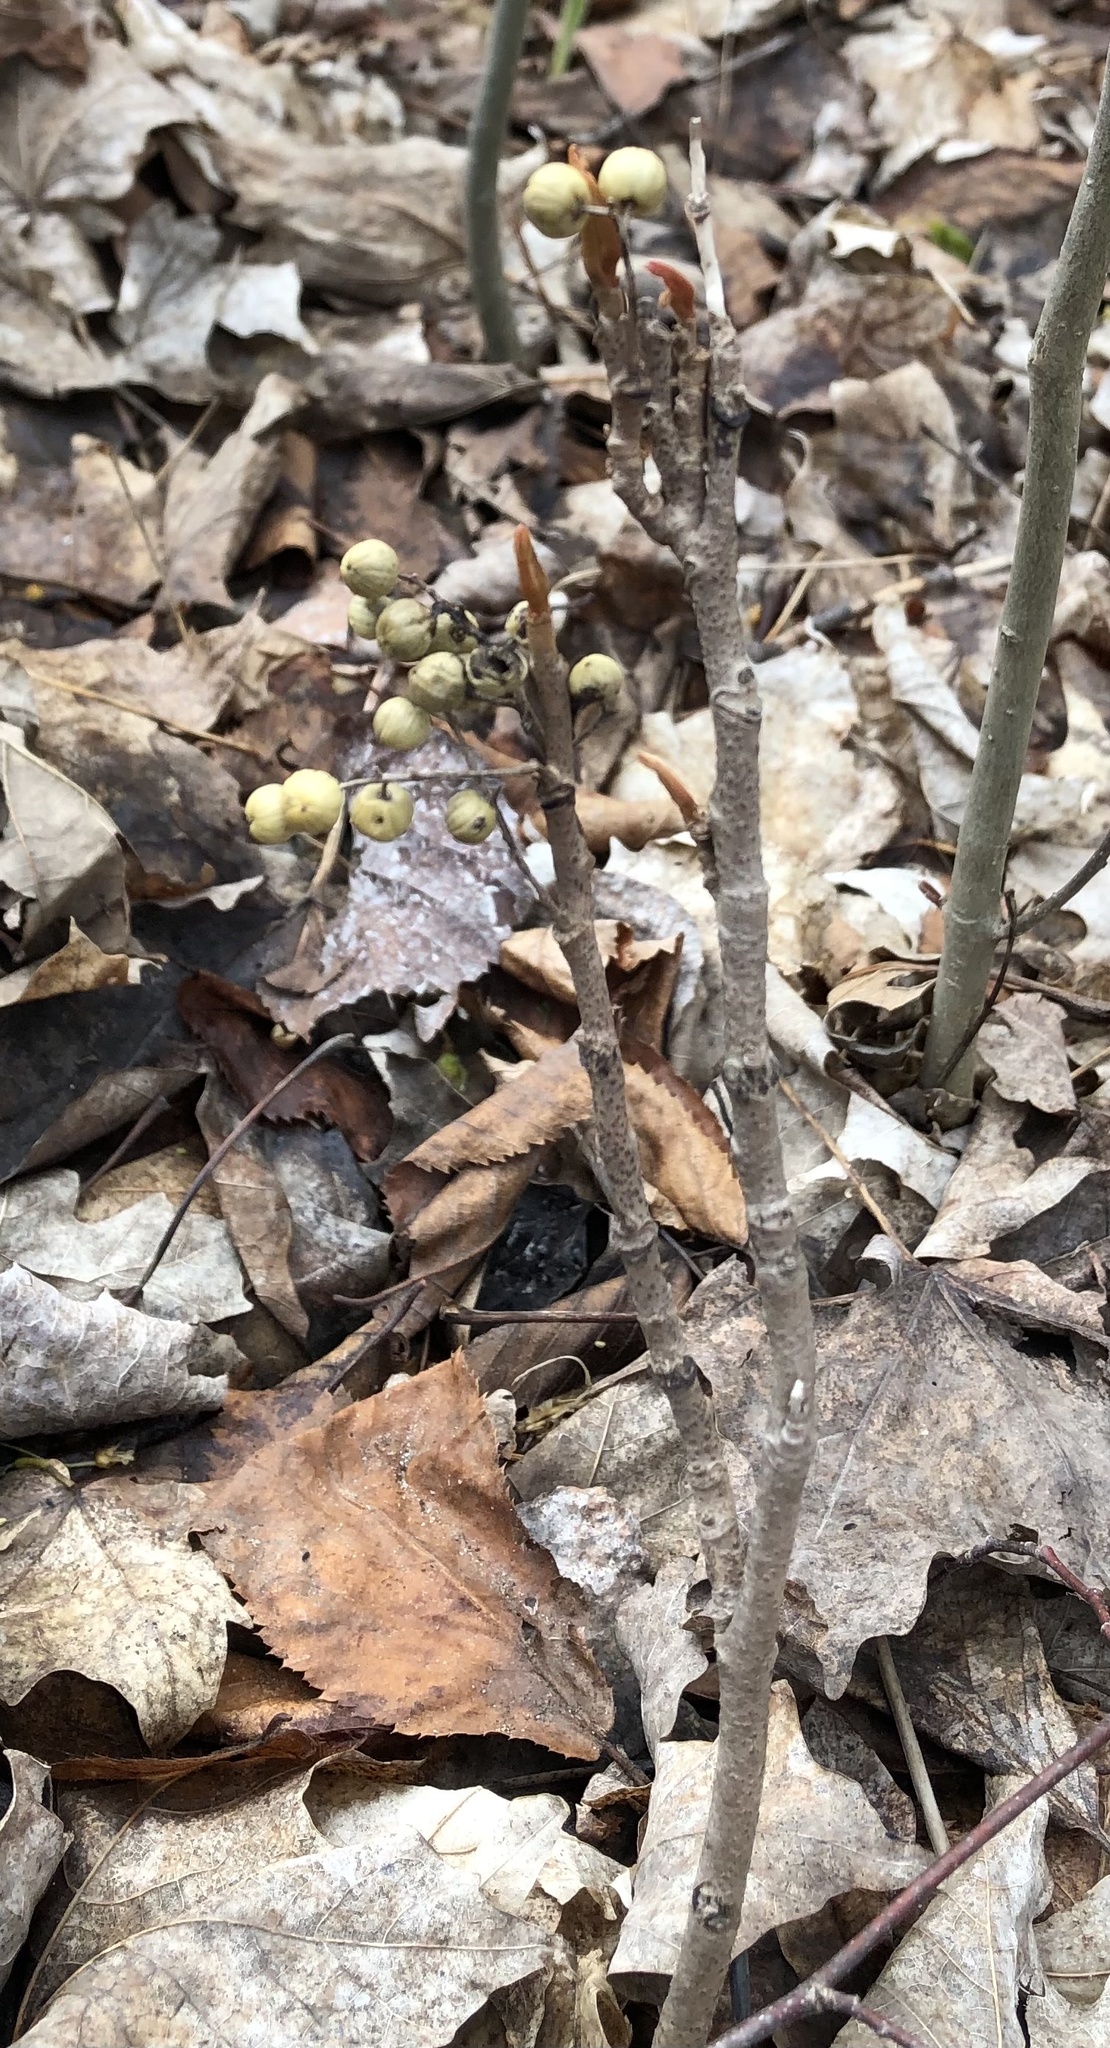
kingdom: Plantae
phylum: Tracheophyta
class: Magnoliopsida
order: Sapindales
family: Anacardiaceae
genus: Toxicodendron
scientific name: Toxicodendron rydbergii
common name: Rydberg's poison-ivy
